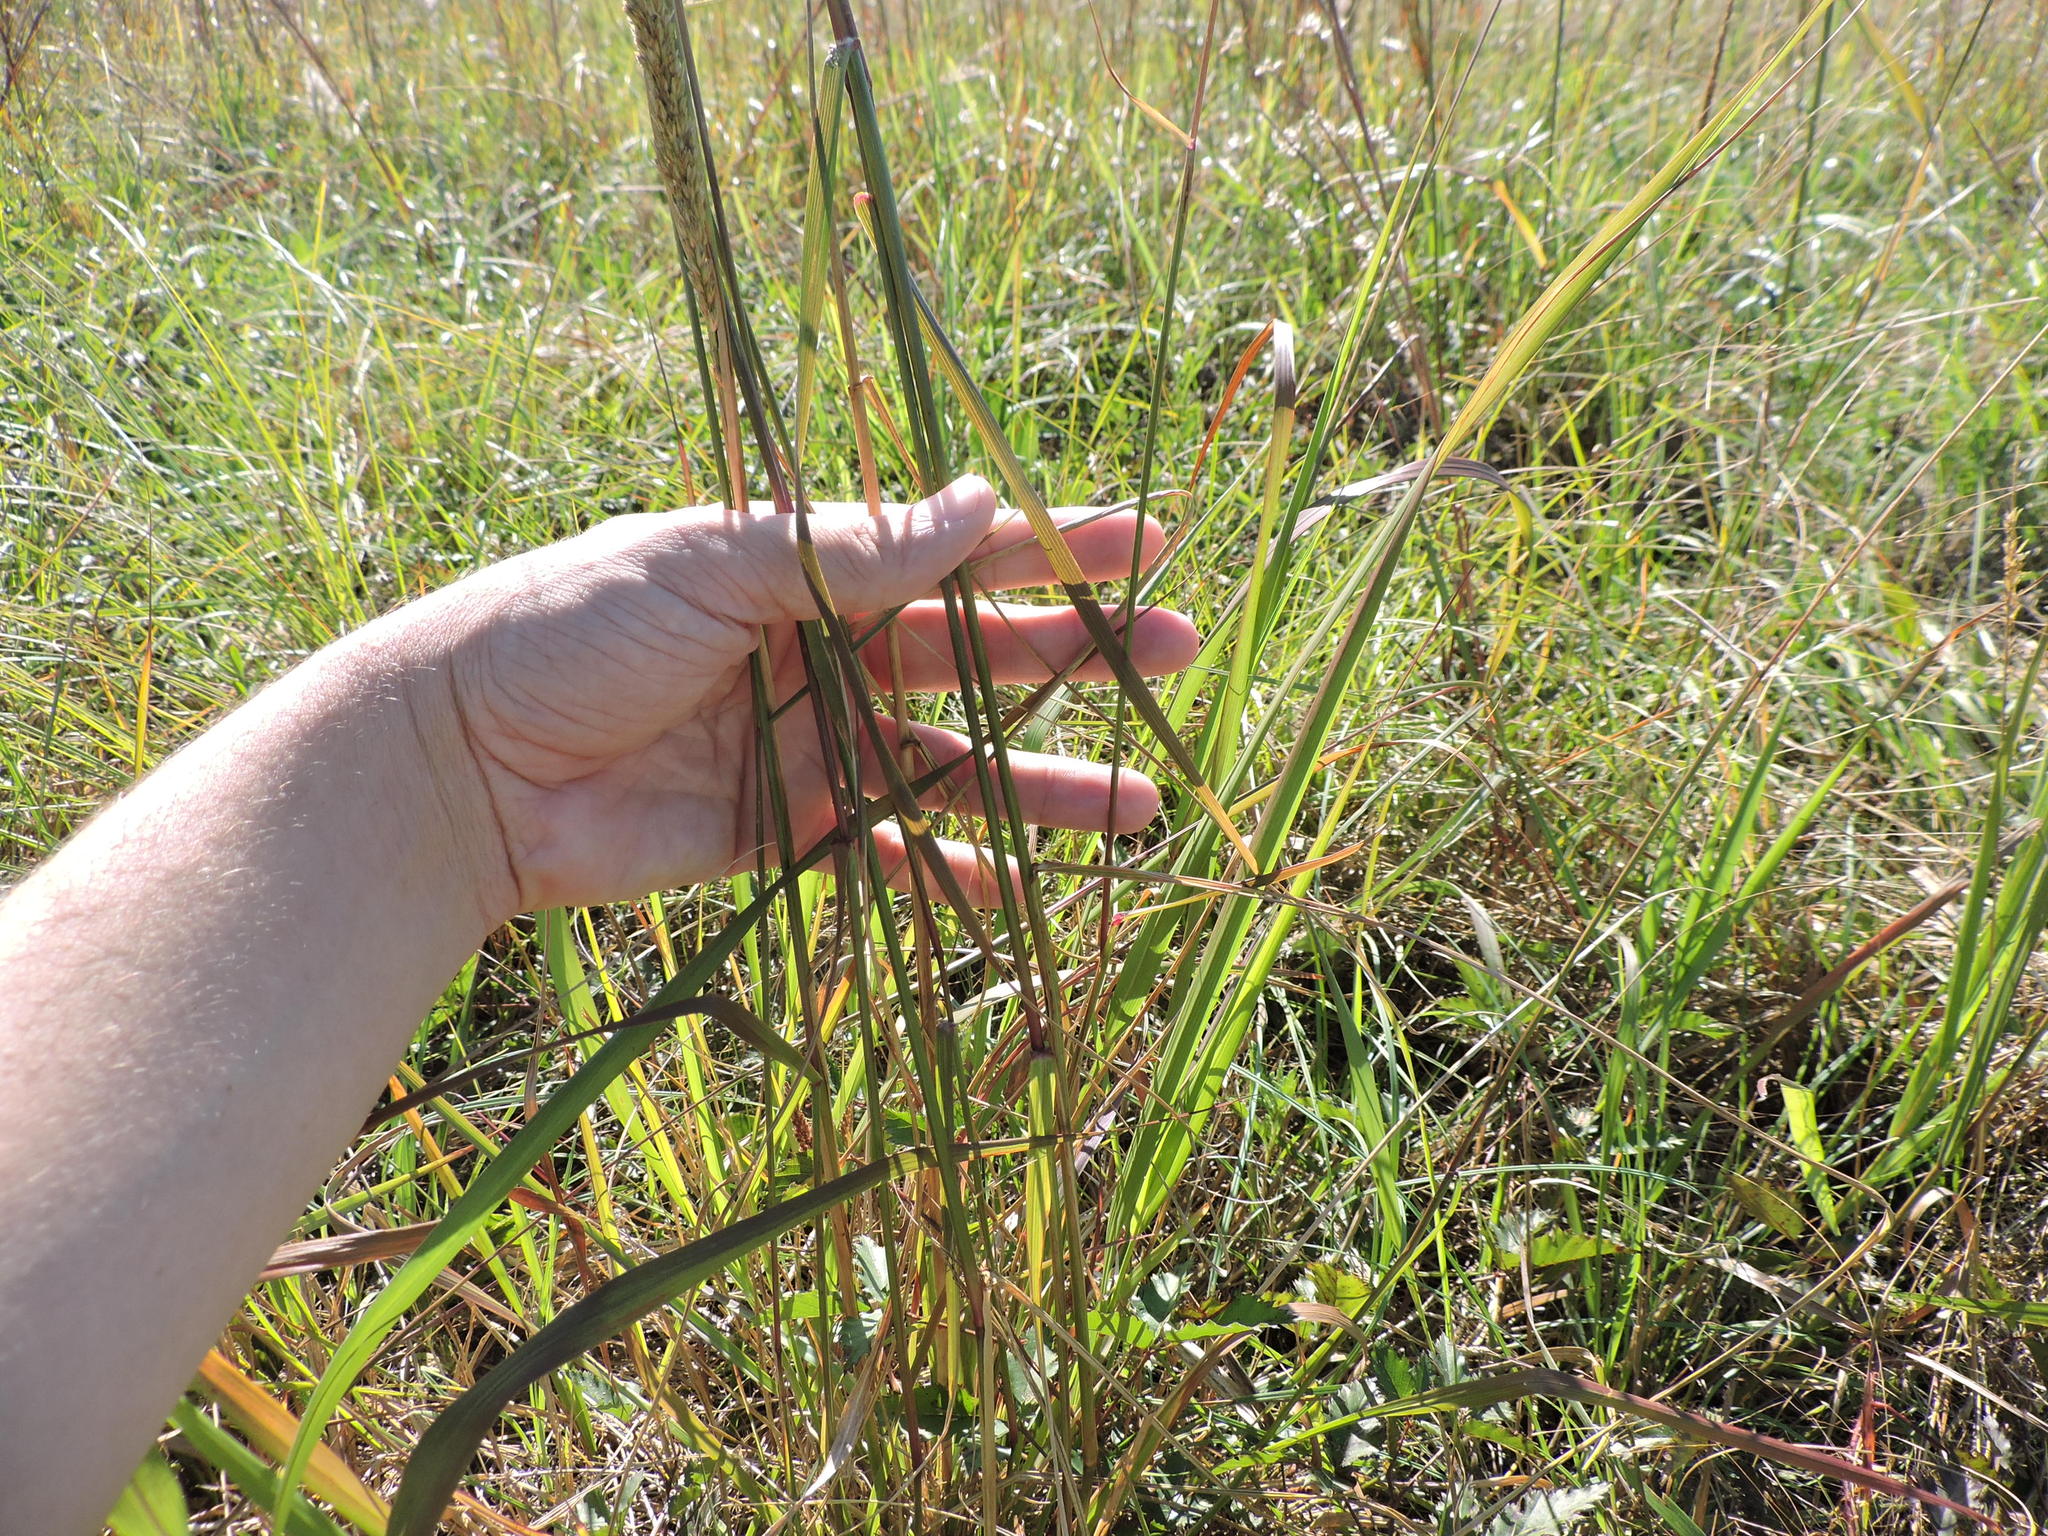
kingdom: Plantae
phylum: Tracheophyta
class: Liliopsida
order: Poales
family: Poaceae
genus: Tridens
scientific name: Tridens strictus
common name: Long-spike tridens
